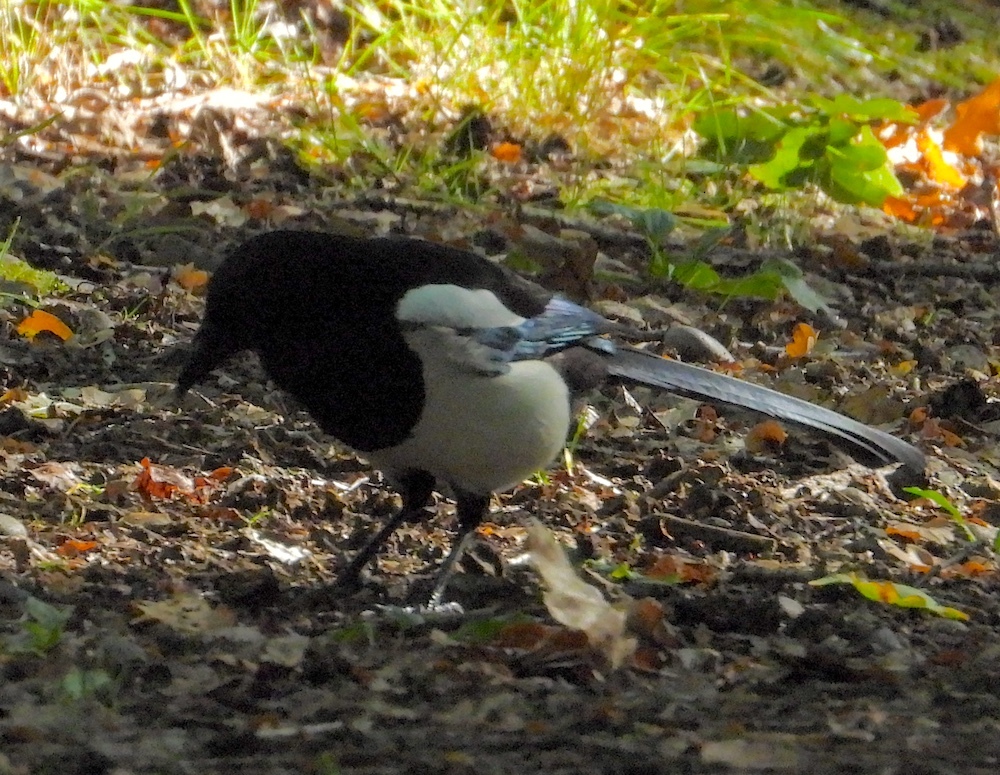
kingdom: Animalia
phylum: Chordata
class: Aves
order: Passeriformes
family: Corvidae
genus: Pica
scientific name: Pica pica
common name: Eurasian magpie
